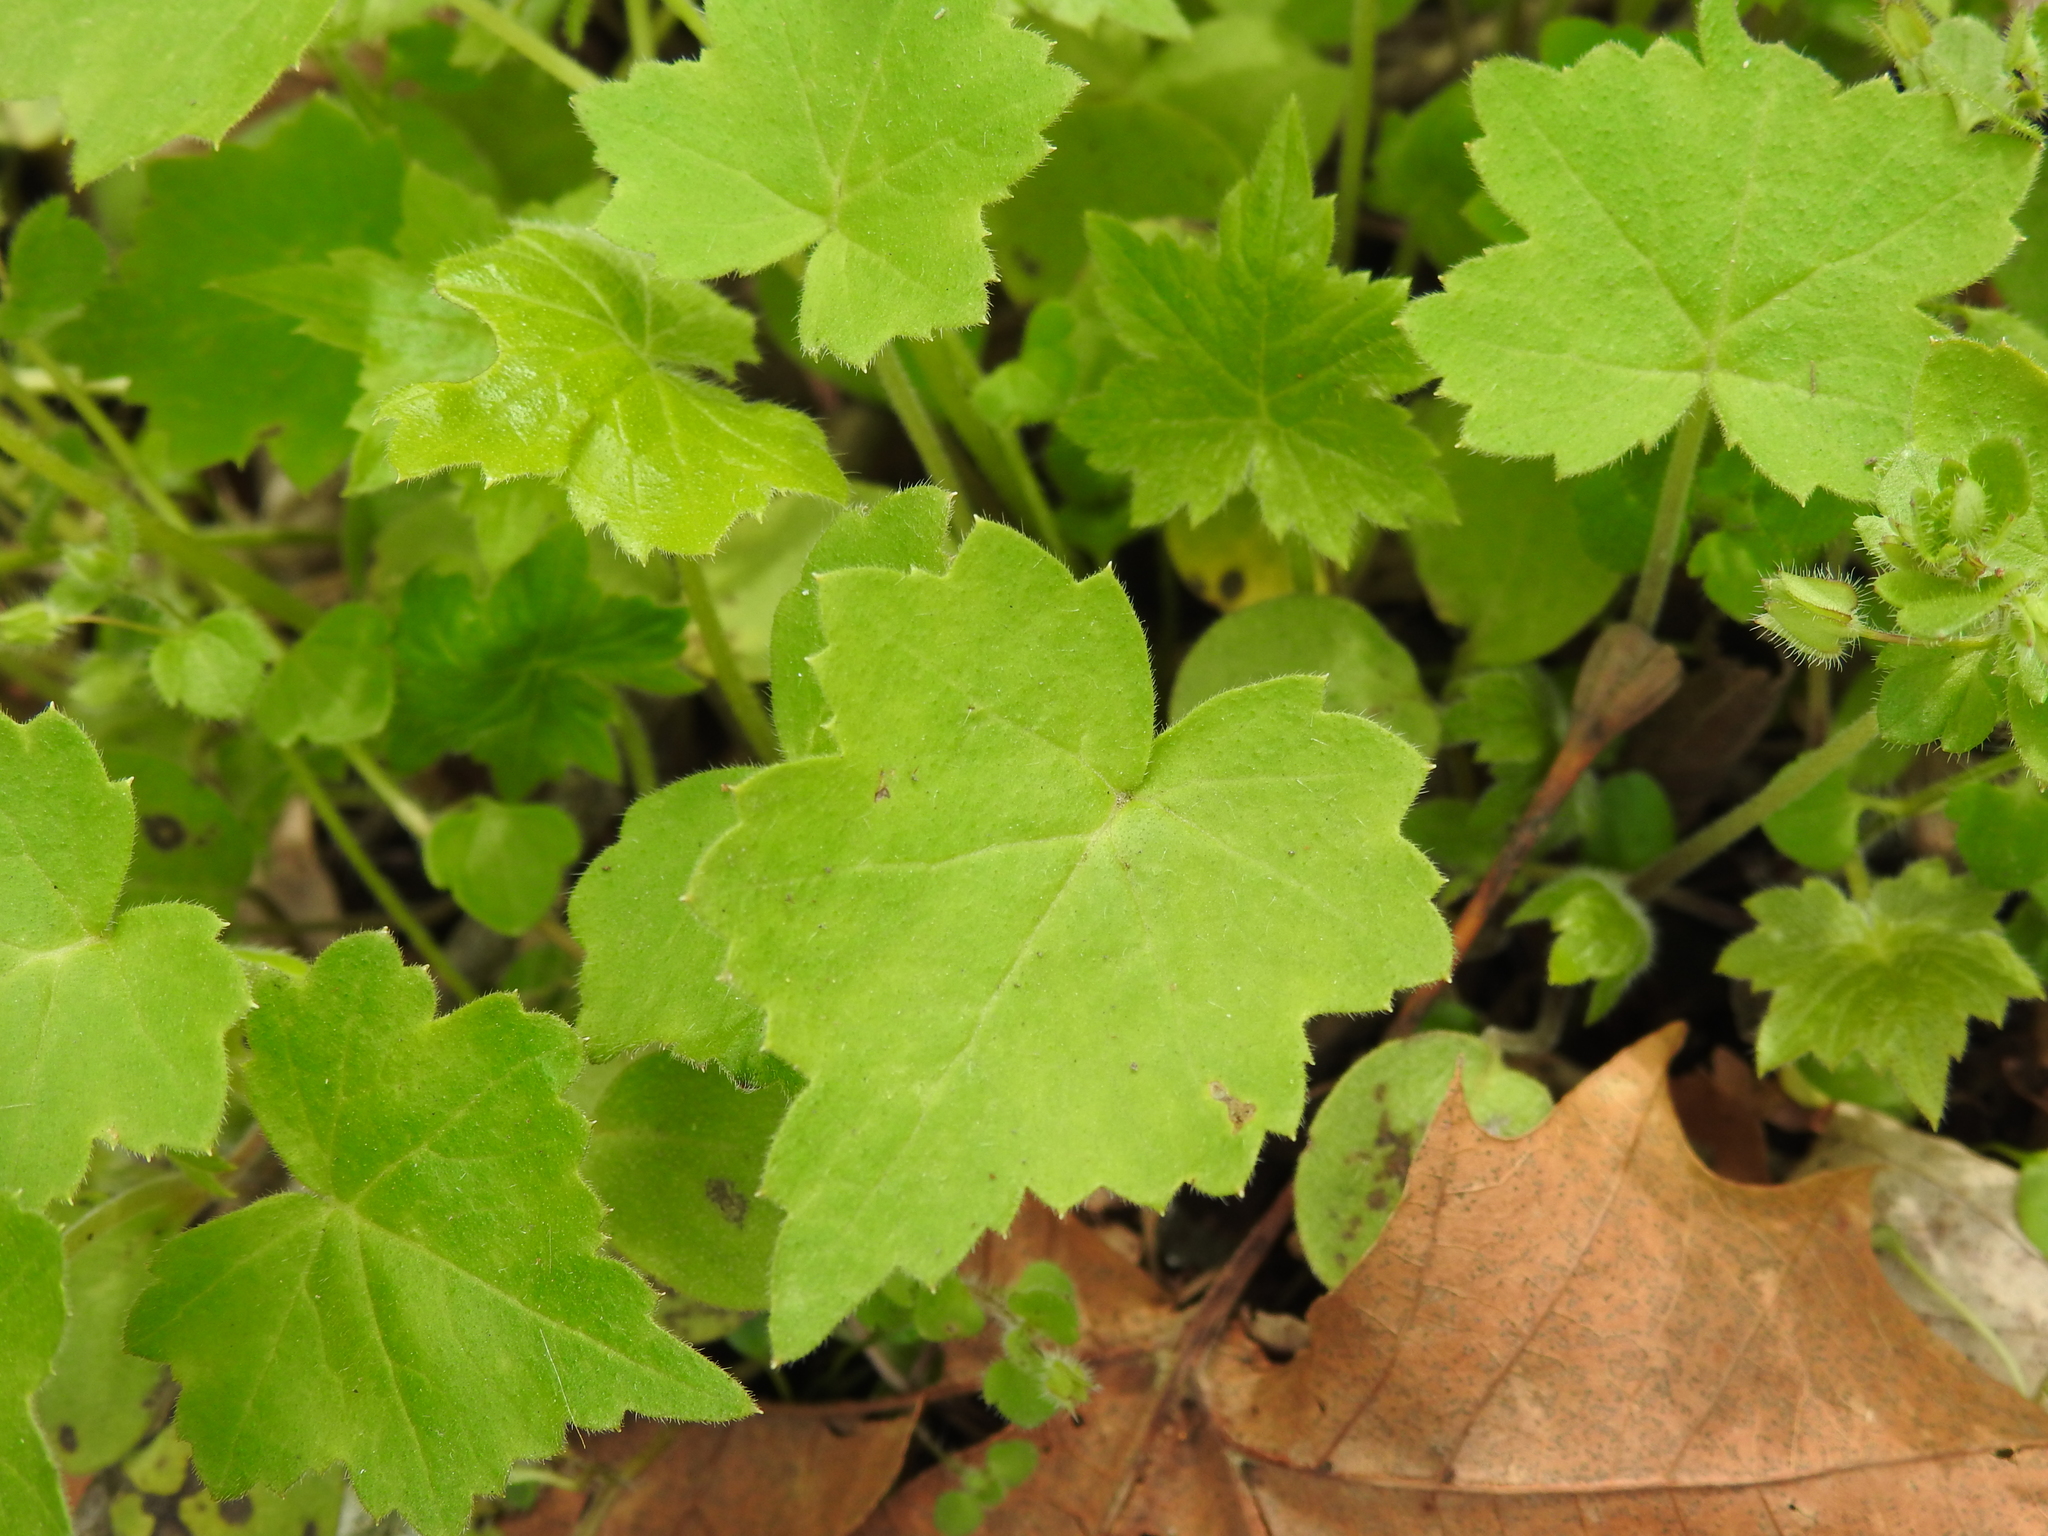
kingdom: Plantae
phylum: Tracheophyta
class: Magnoliopsida
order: Boraginales
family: Hydrophyllaceae
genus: Hydrophyllum
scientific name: Hydrophyllum canadense
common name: Canada waterleaf
